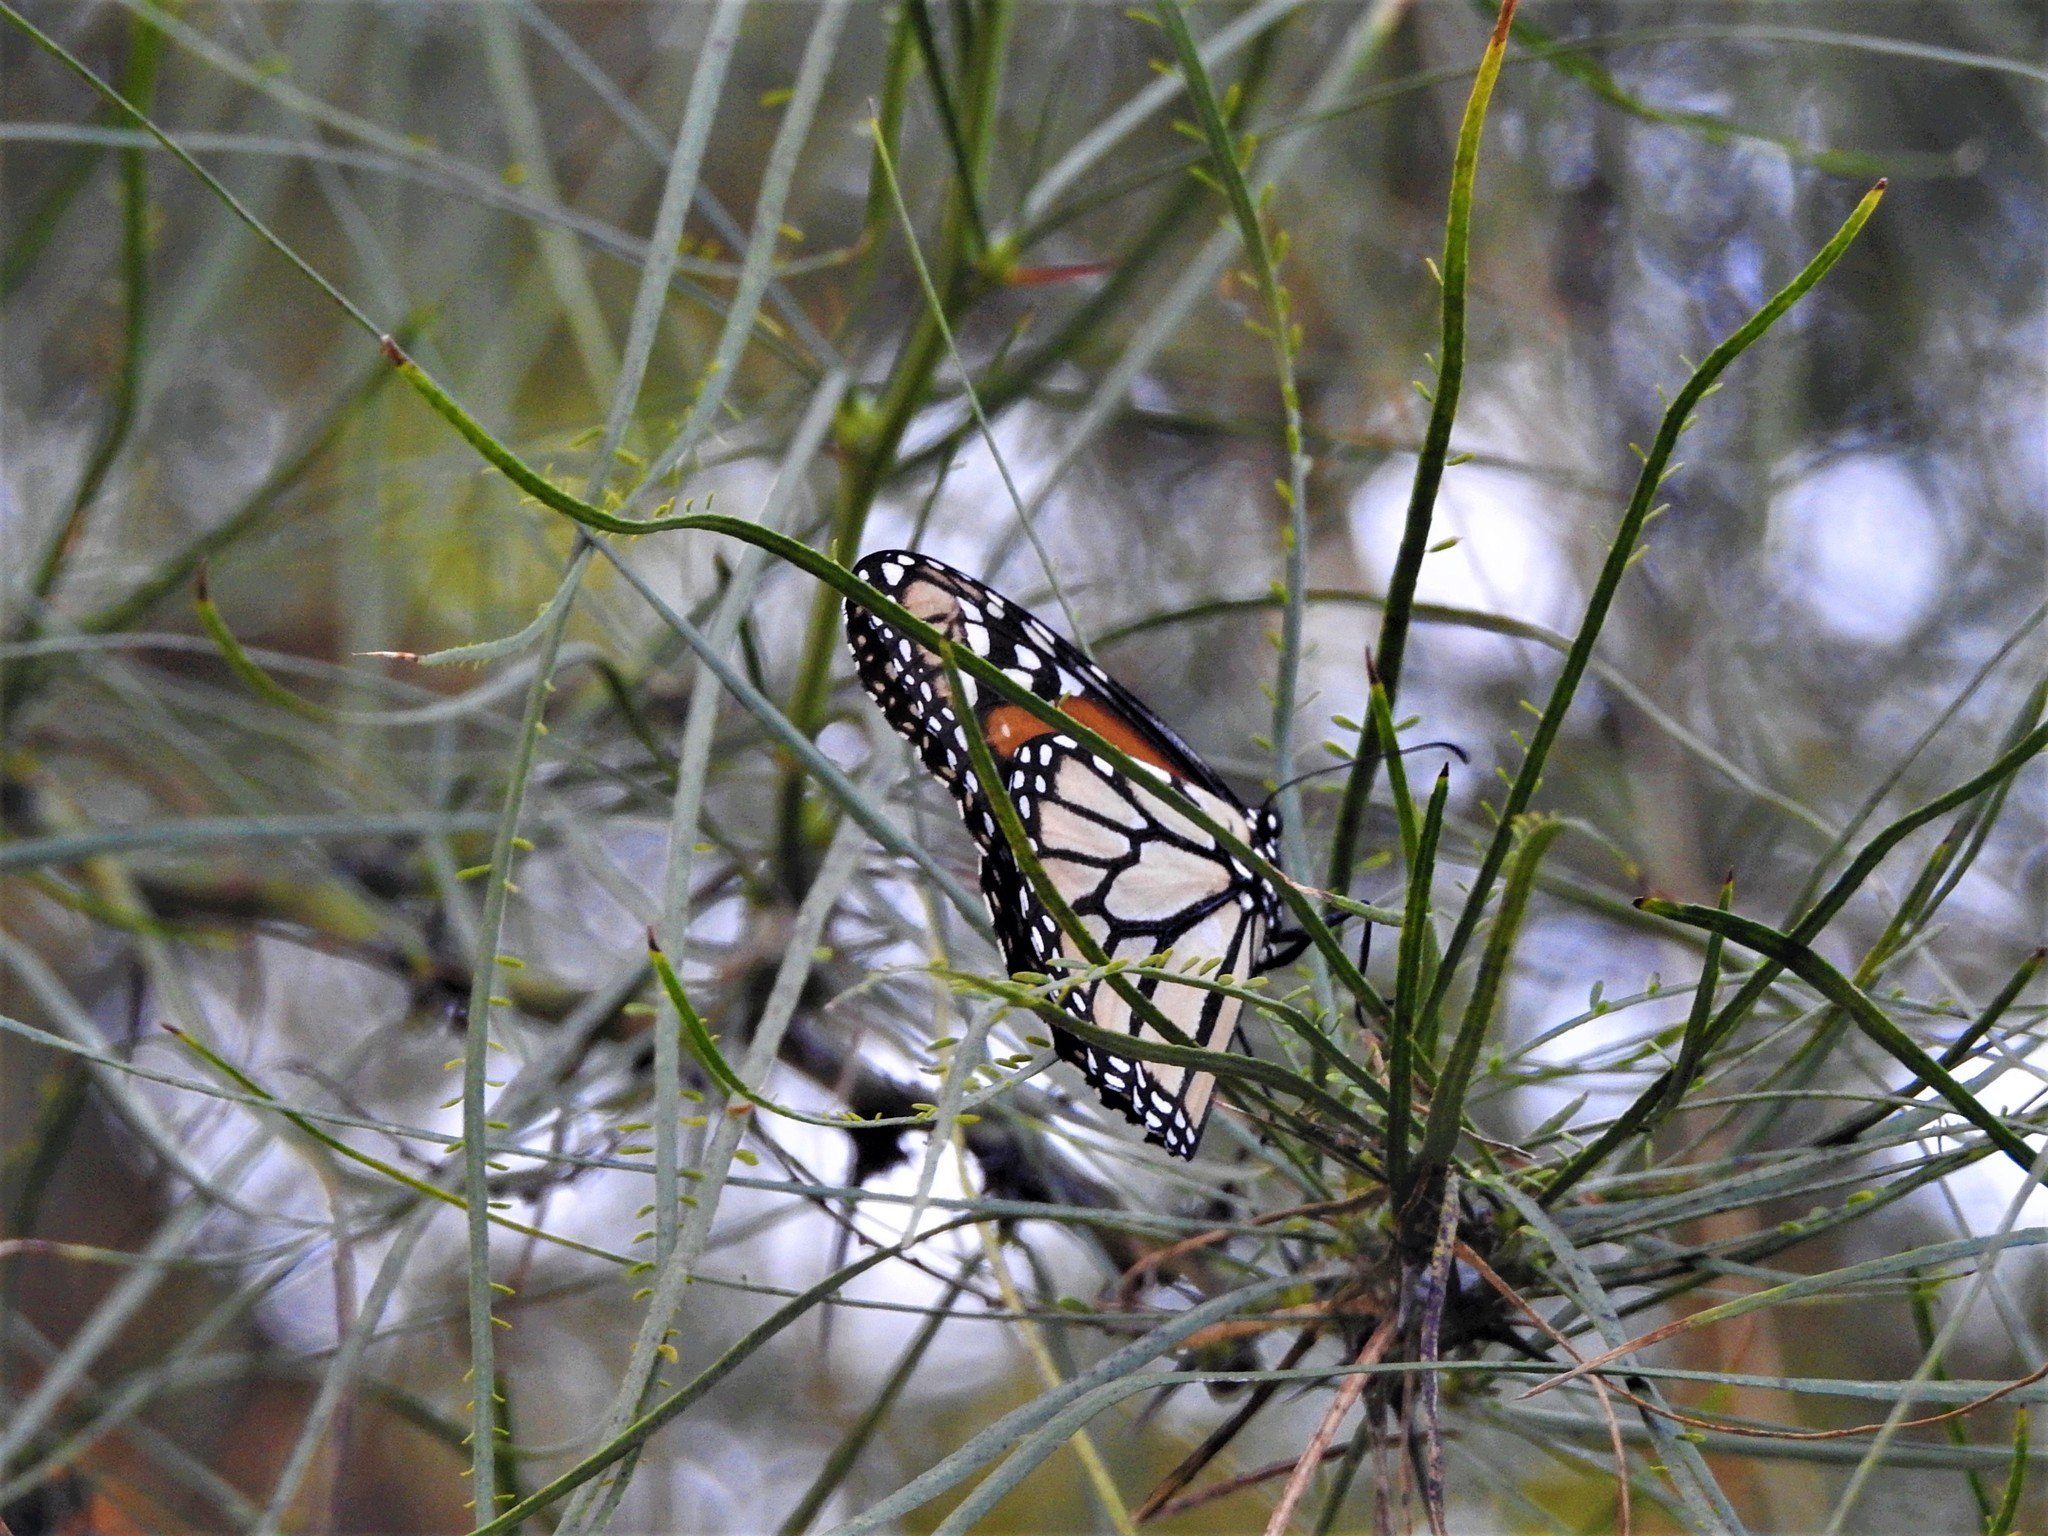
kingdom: Animalia
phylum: Arthropoda
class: Insecta
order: Lepidoptera
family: Nymphalidae
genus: Danaus
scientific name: Danaus plexippus
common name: Monarch
